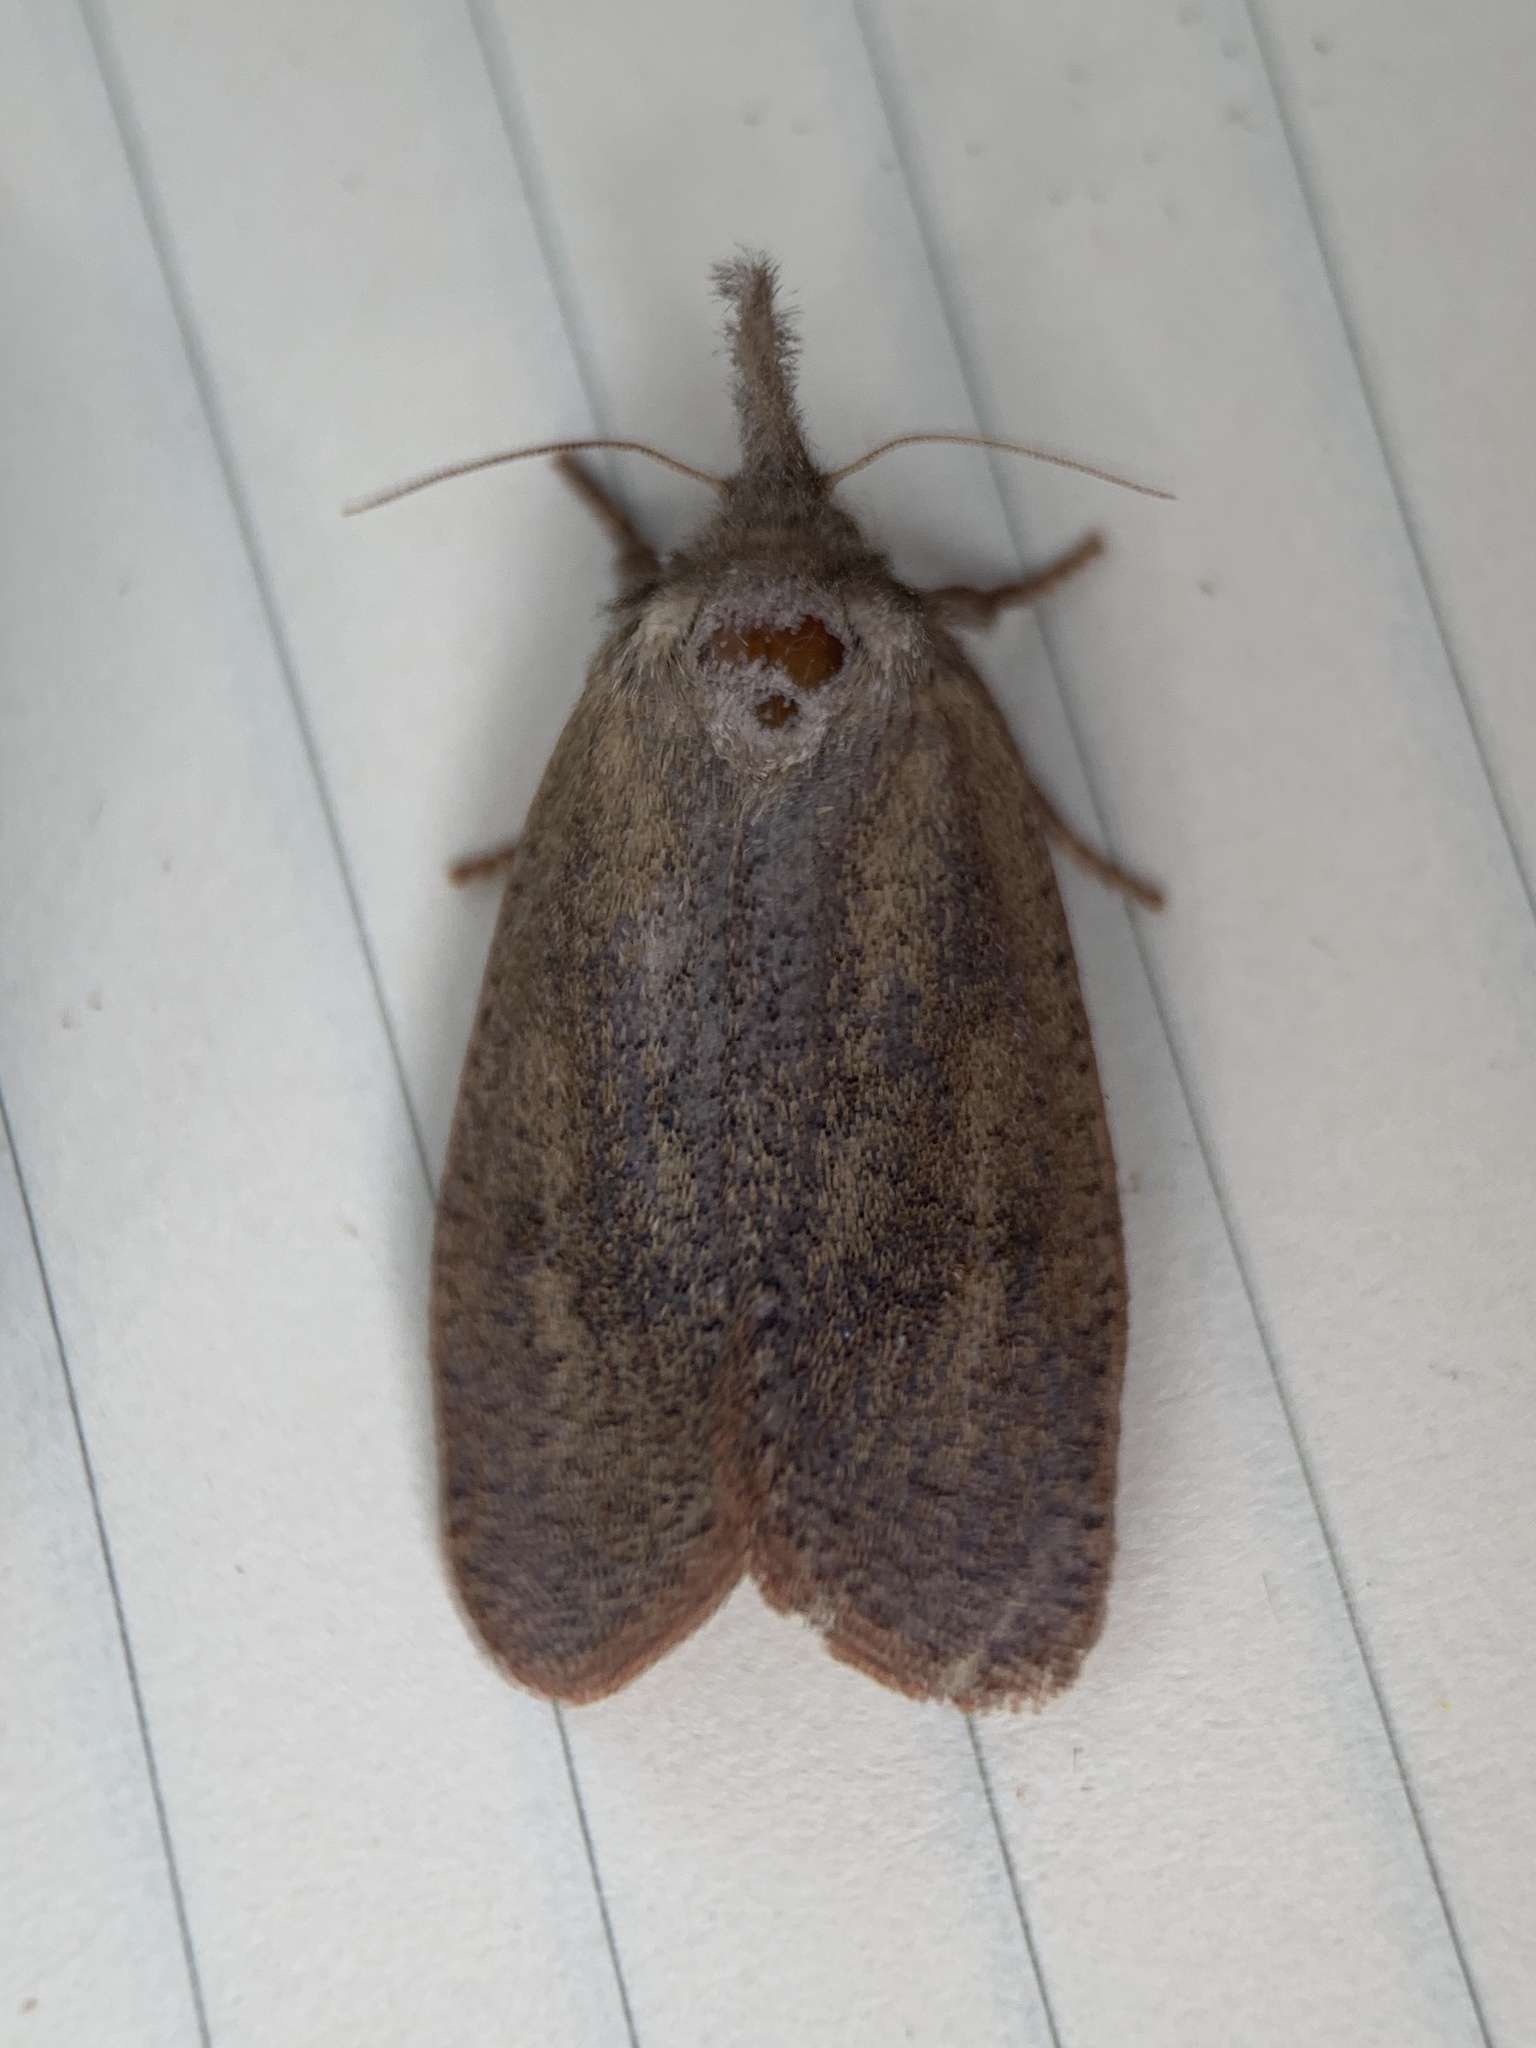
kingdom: Animalia
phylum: Arthropoda
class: Insecta
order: Lepidoptera
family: Tineidae
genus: Acrolophus
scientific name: Acrolophus plumifrontella
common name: Eastern grass tubeworm moth
